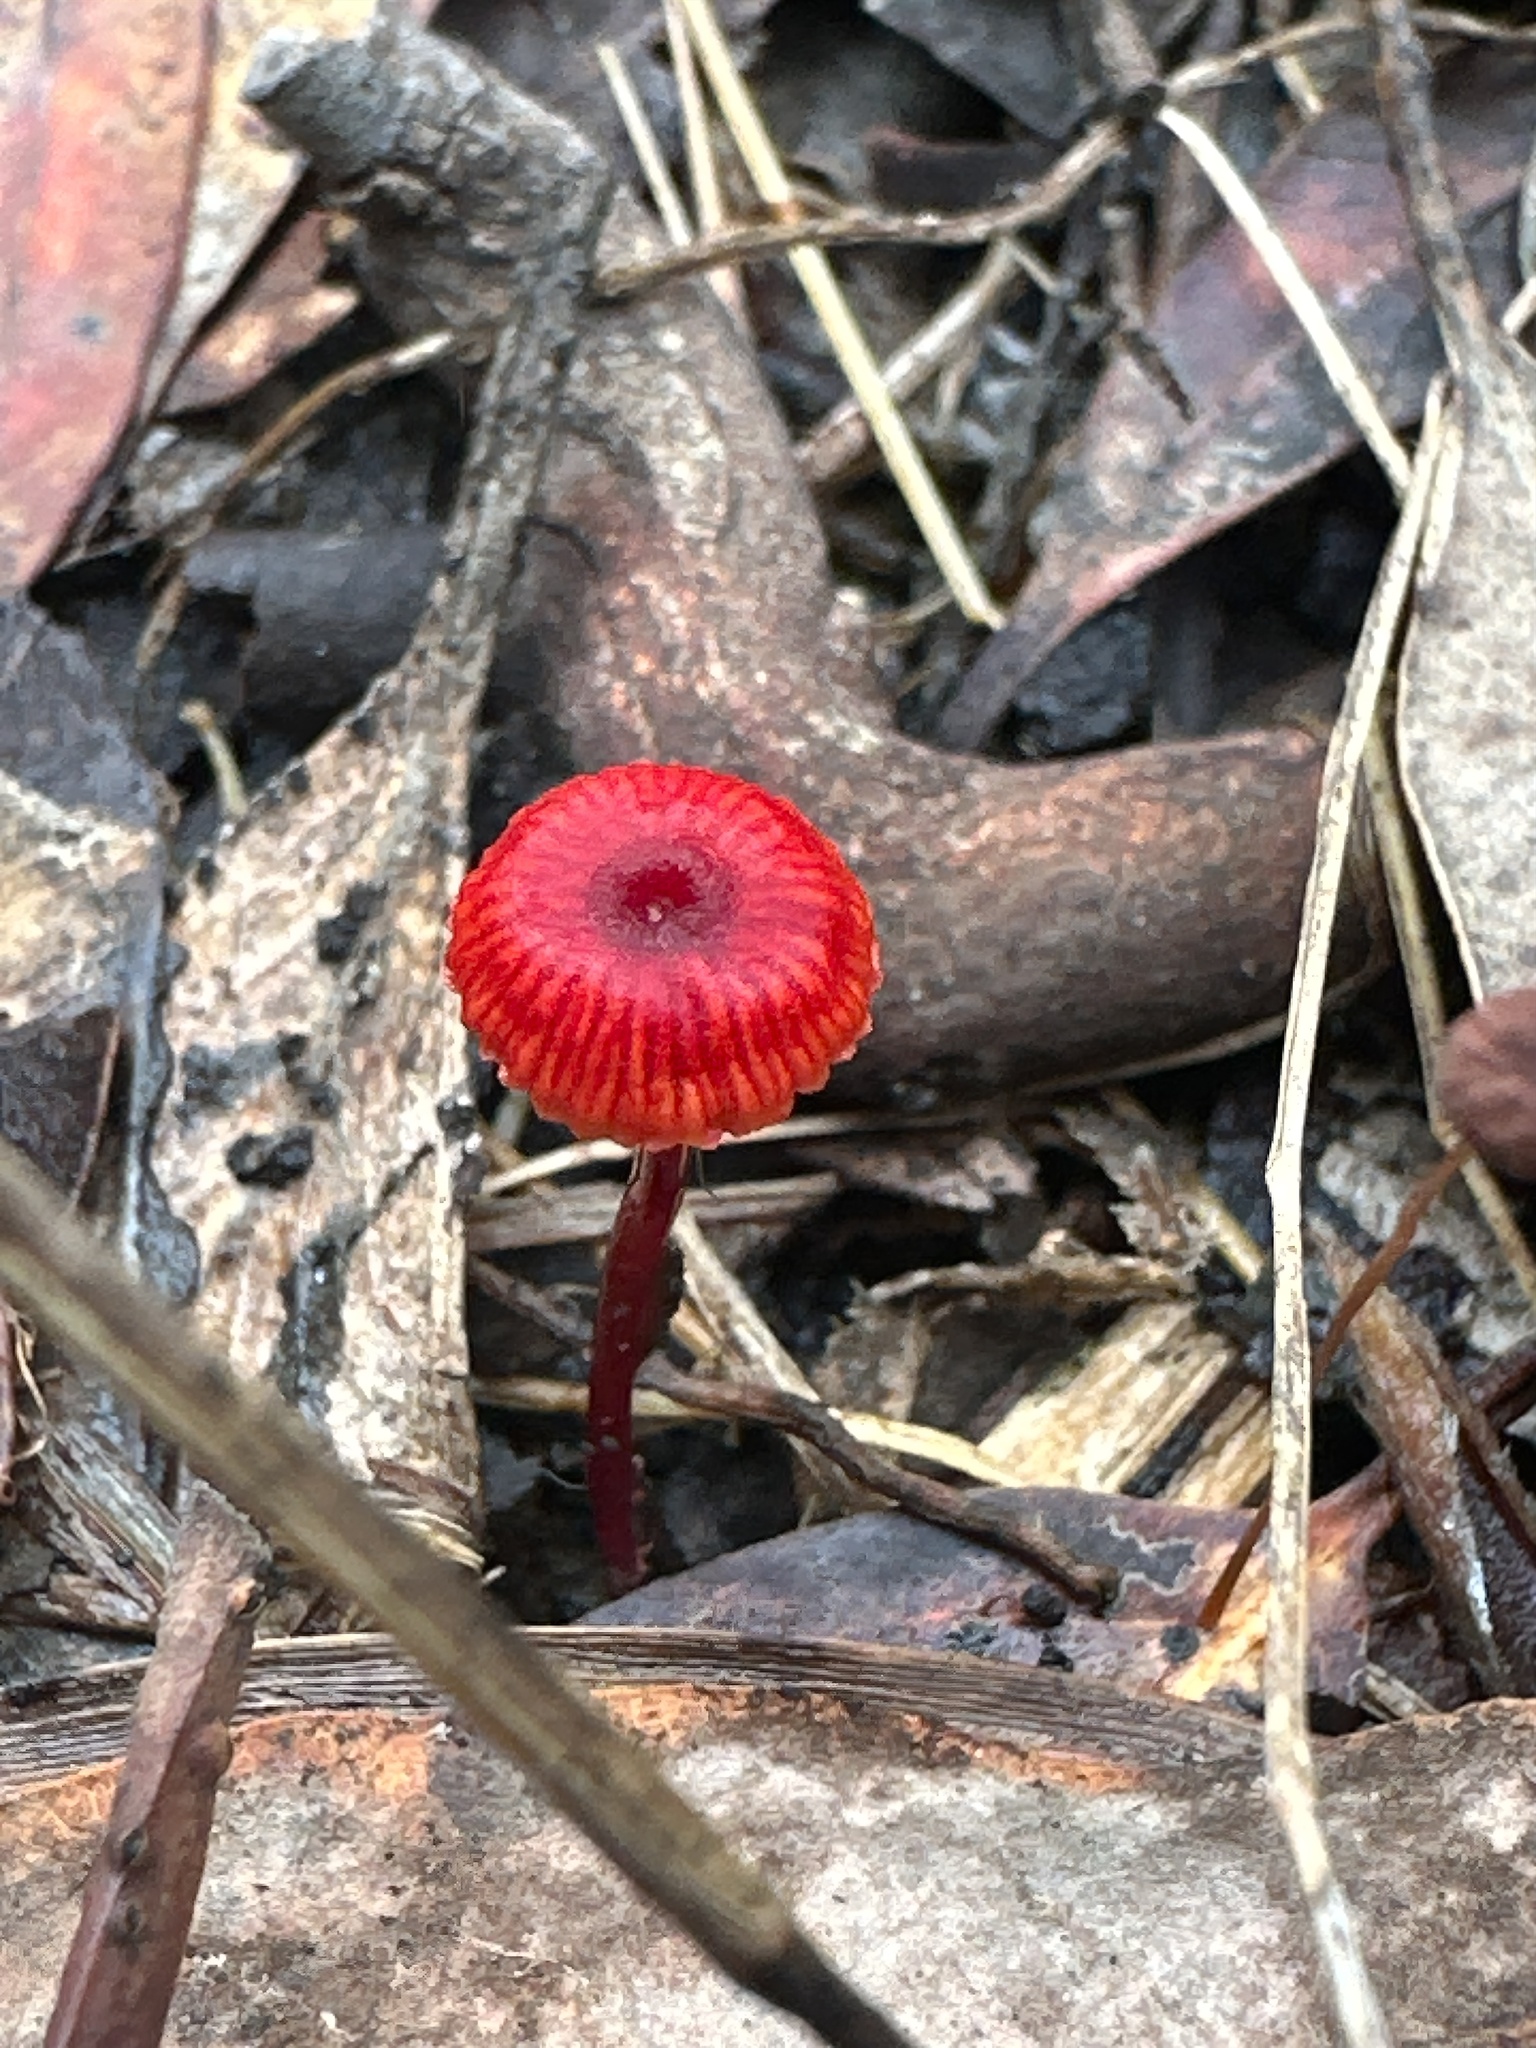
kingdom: Fungi
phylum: Basidiomycota
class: Agaricomycetes
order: Agaricales
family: Mycenaceae
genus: Cruentomycena
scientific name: Cruentomycena viscidocruenta
